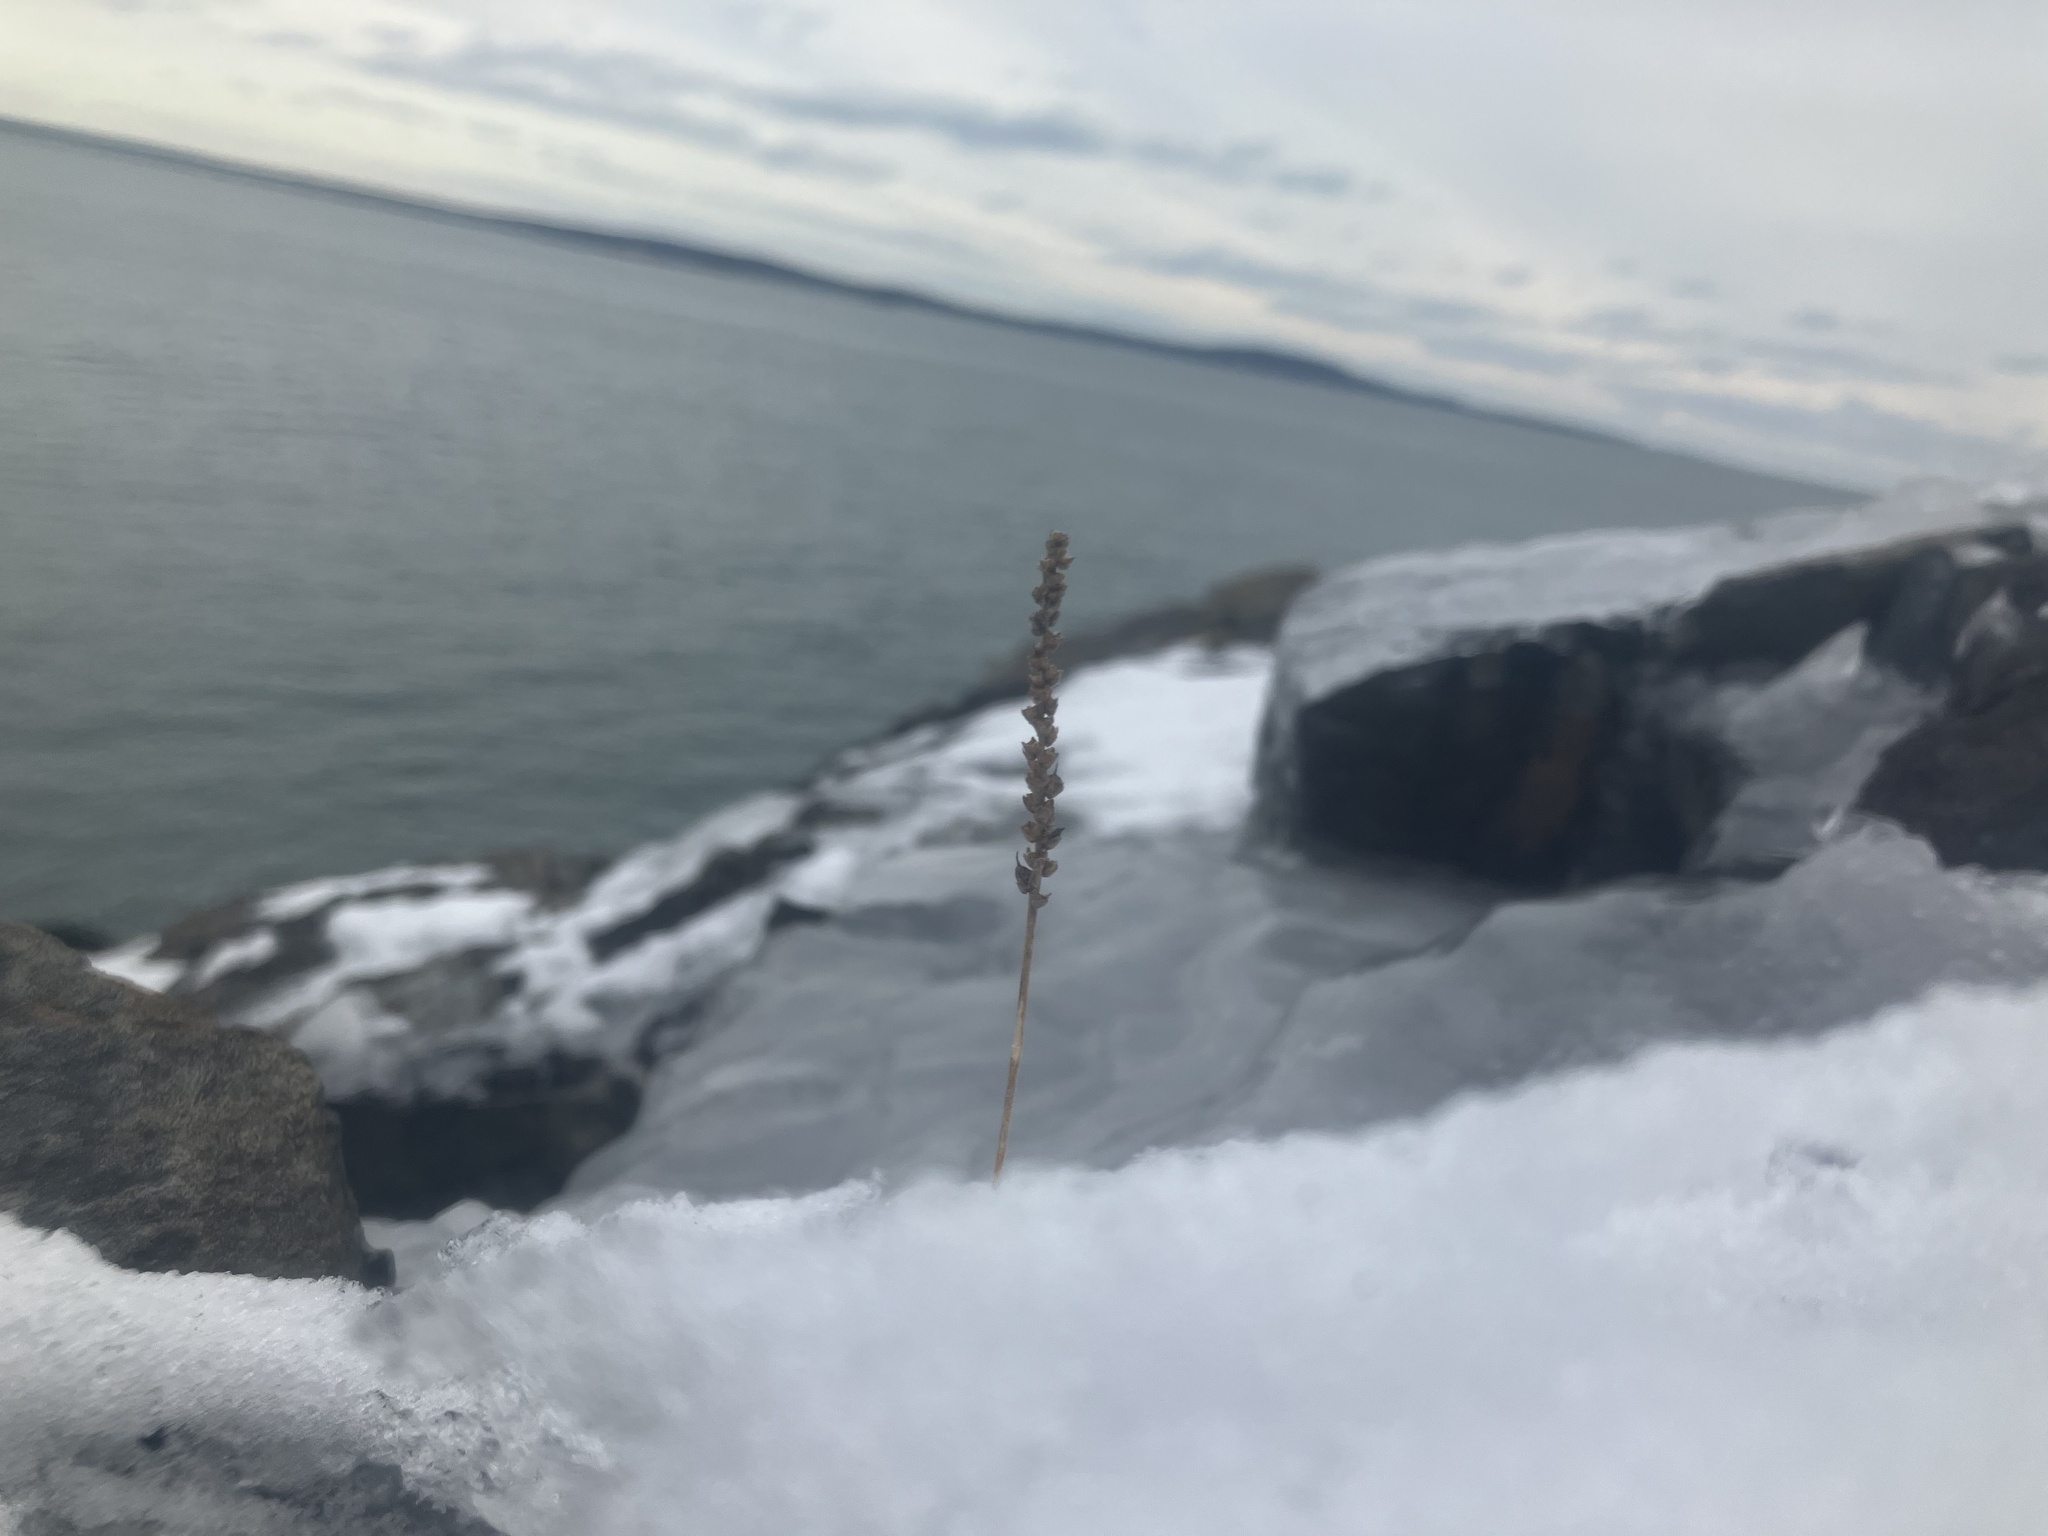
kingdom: Plantae
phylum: Tracheophyta
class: Magnoliopsida
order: Lamiales
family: Plantaginaceae
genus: Plantago
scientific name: Plantago maritima
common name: Sea plantain
